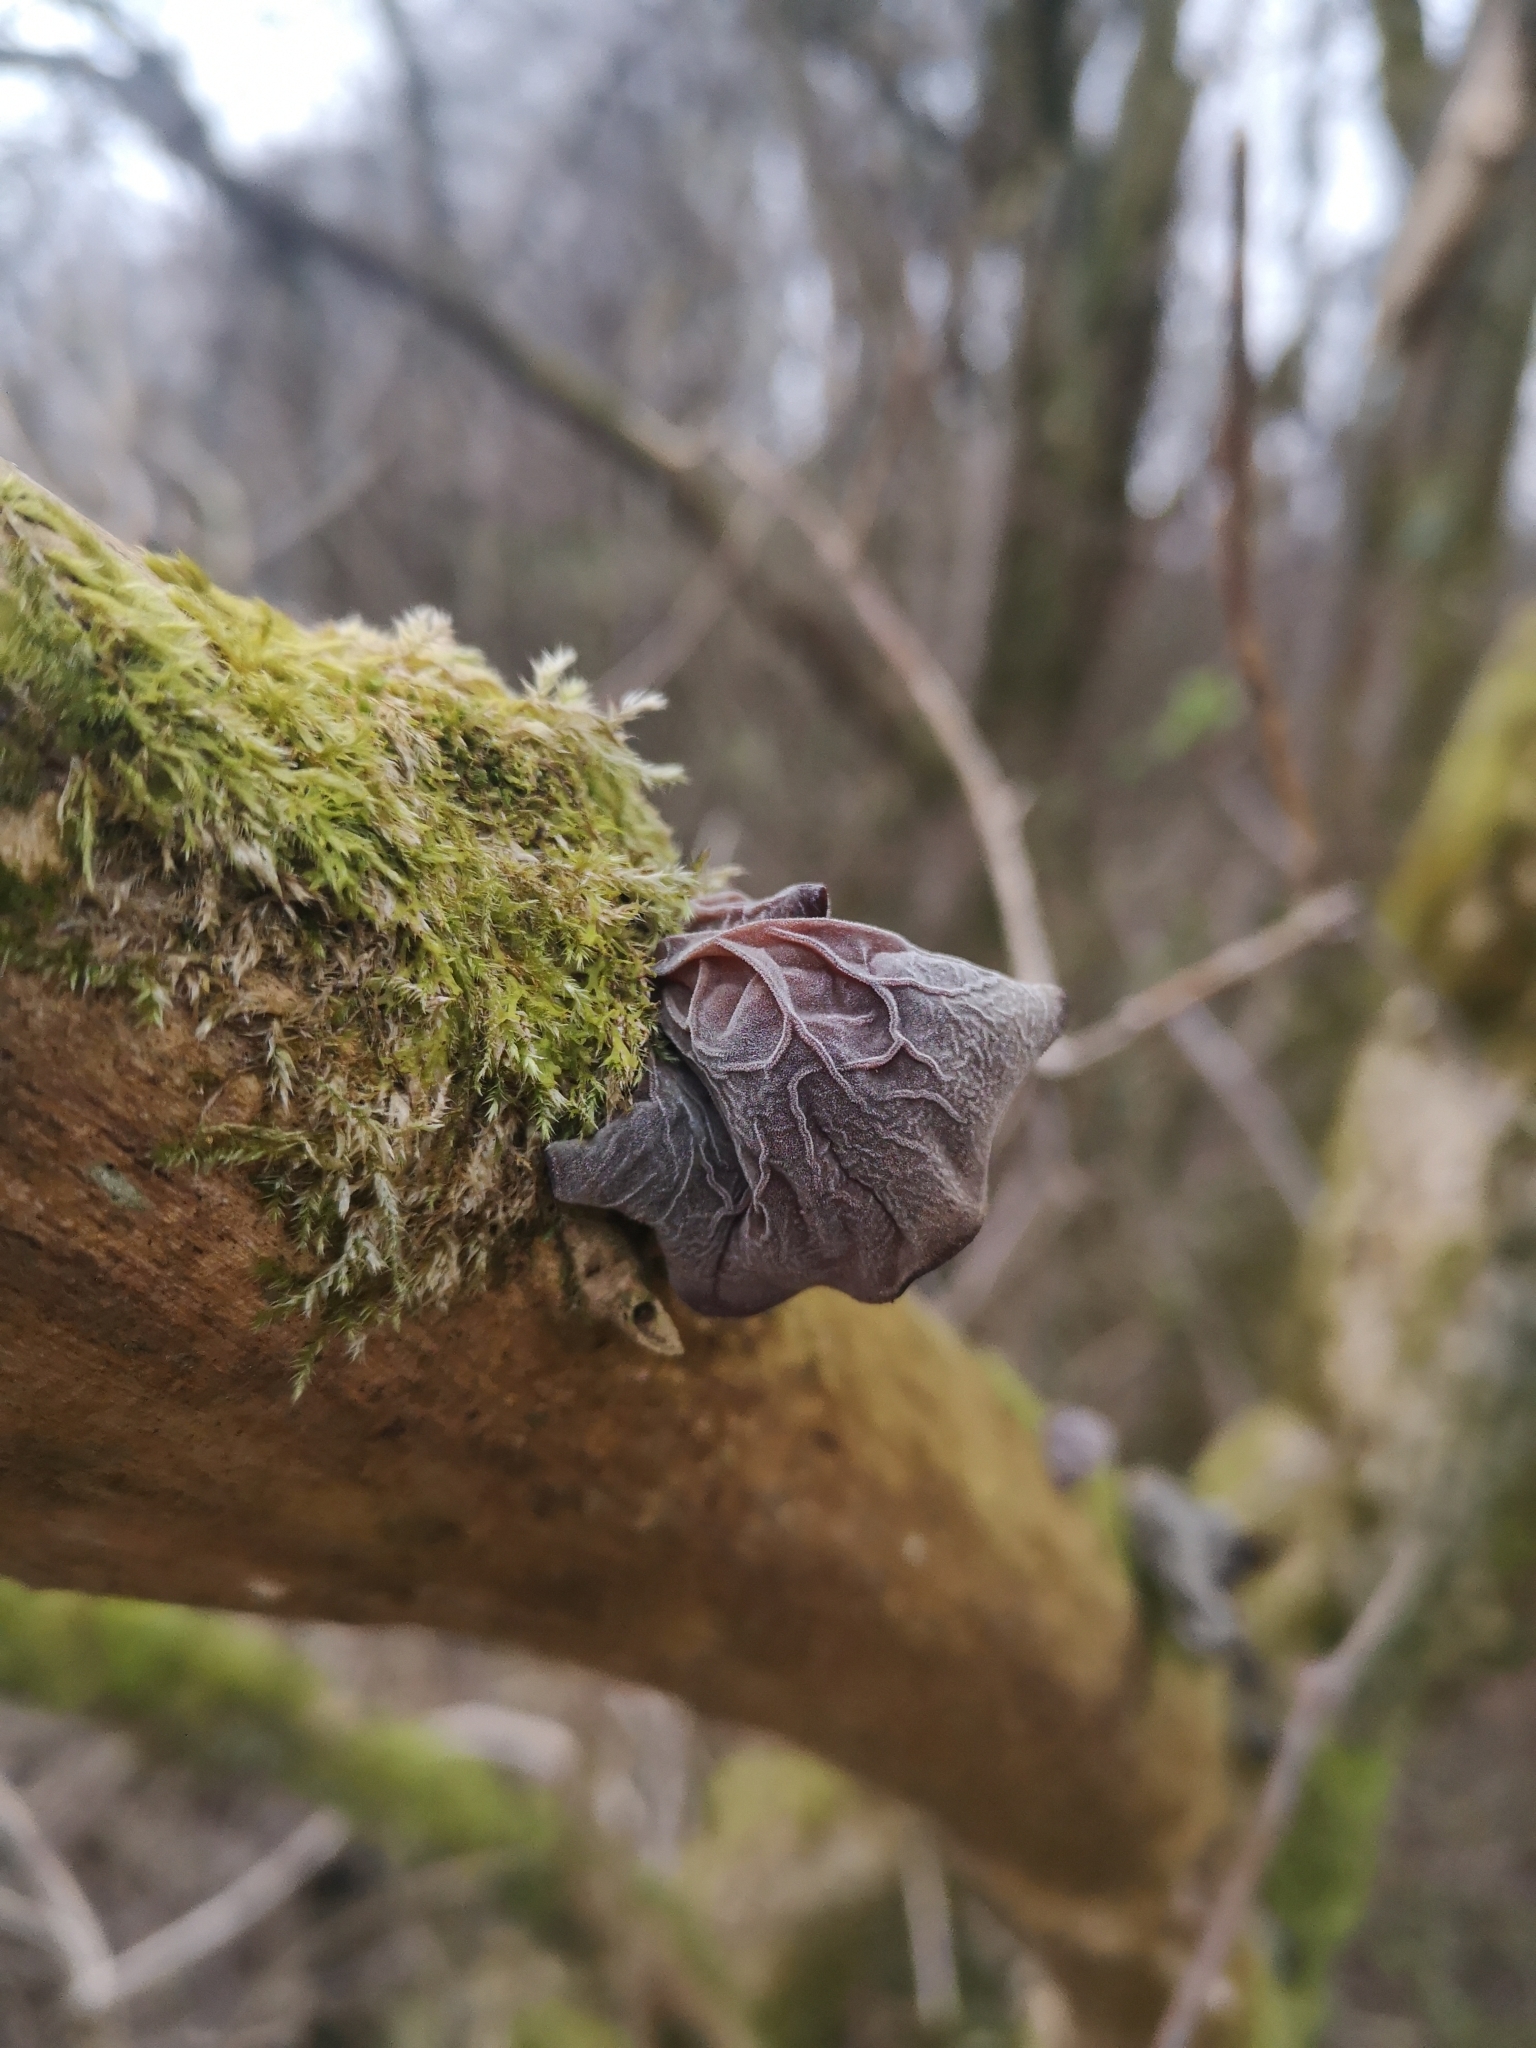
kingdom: Fungi
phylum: Basidiomycota
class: Agaricomycetes
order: Auriculariales
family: Auriculariaceae
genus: Auricularia
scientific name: Auricularia auricula-judae
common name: Jelly ear
